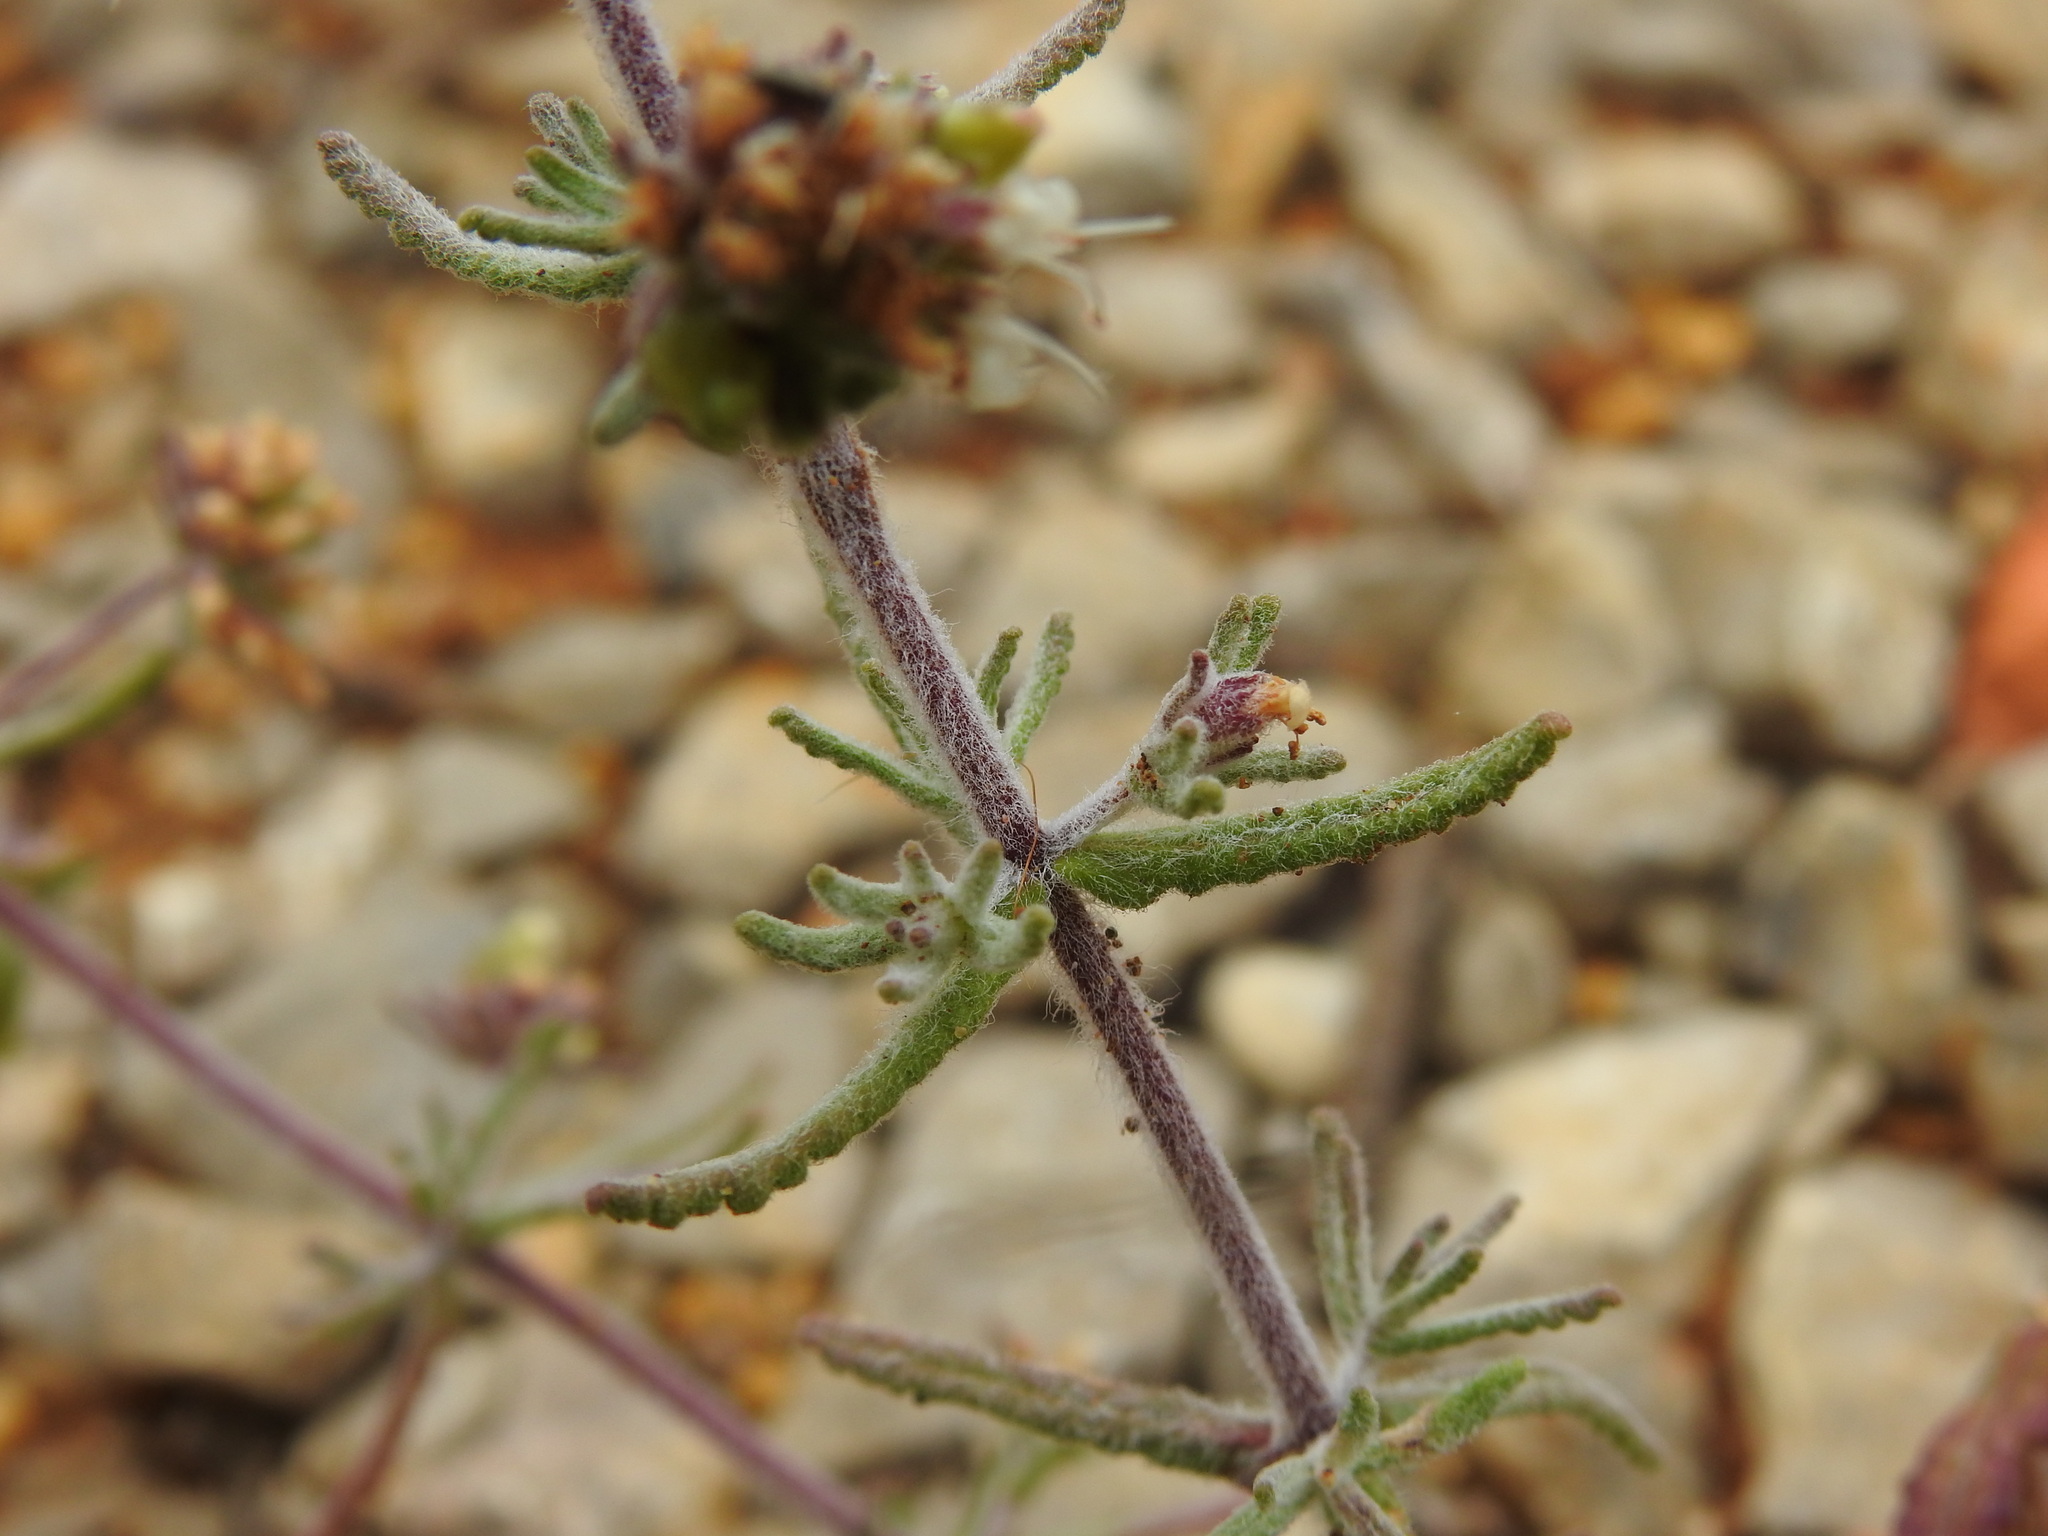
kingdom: Plantae
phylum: Tracheophyta
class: Magnoliopsida
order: Lamiales
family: Lamiaceae
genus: Teucrium
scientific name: Teucrium algarbiense
